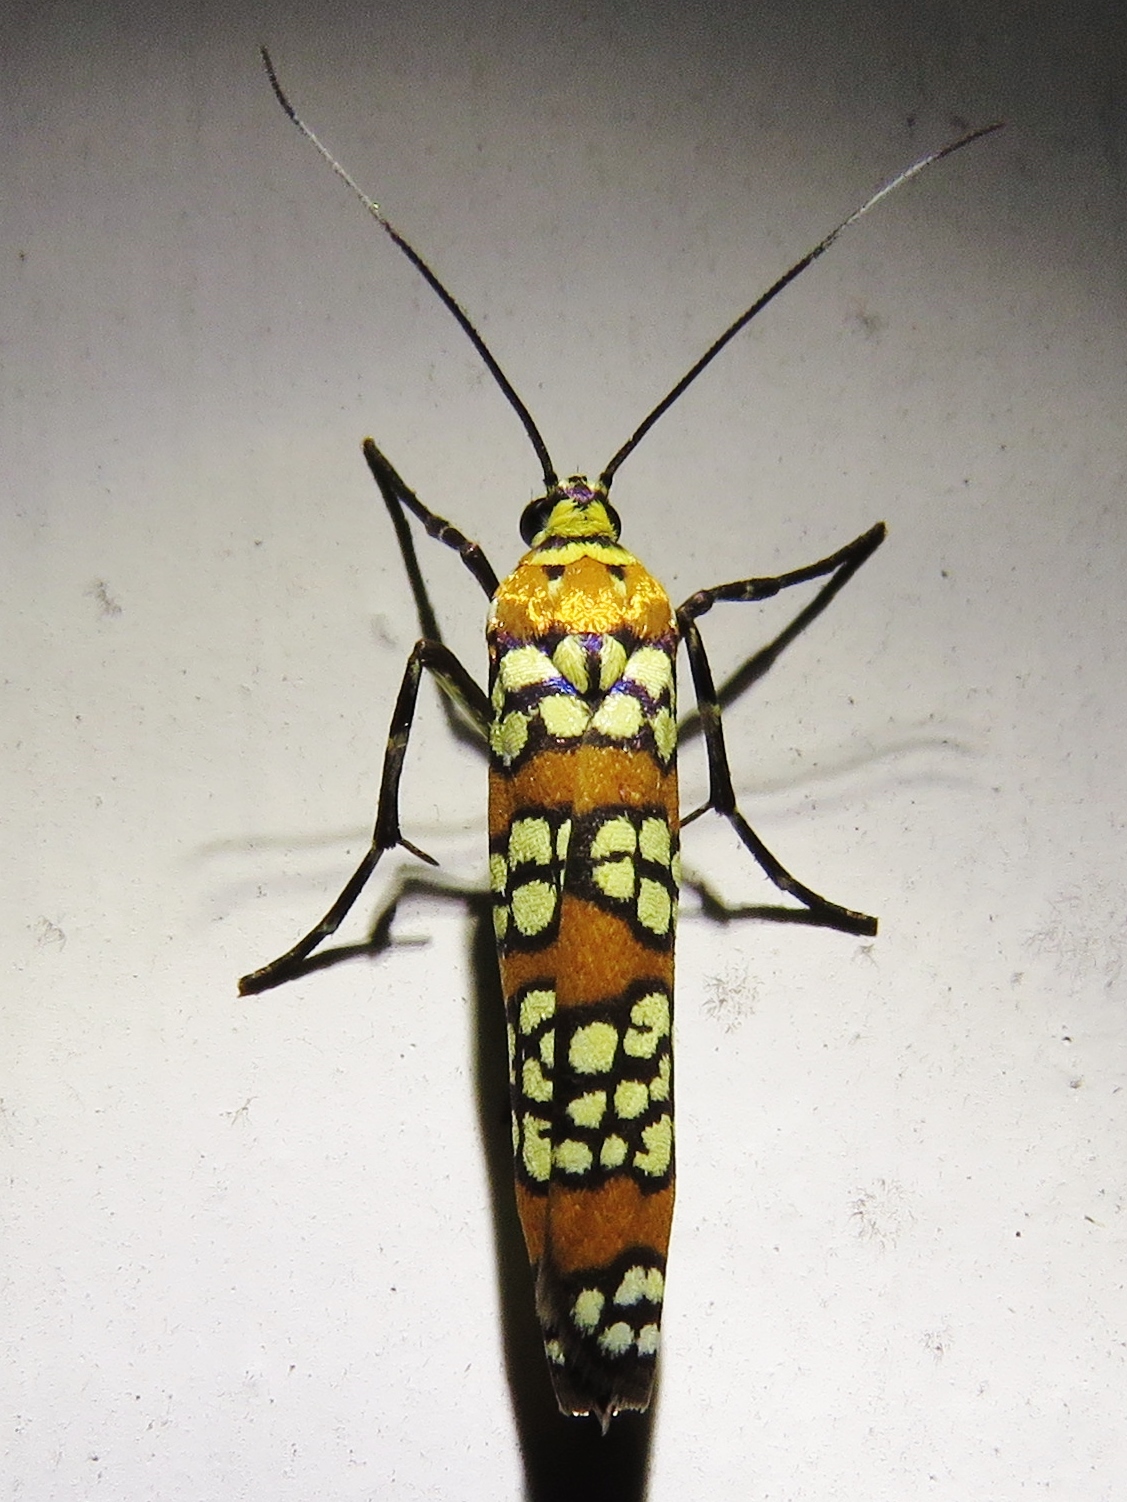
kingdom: Animalia
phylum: Arthropoda
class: Insecta
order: Lepidoptera
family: Attevidae
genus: Atteva
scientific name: Atteva punctella
